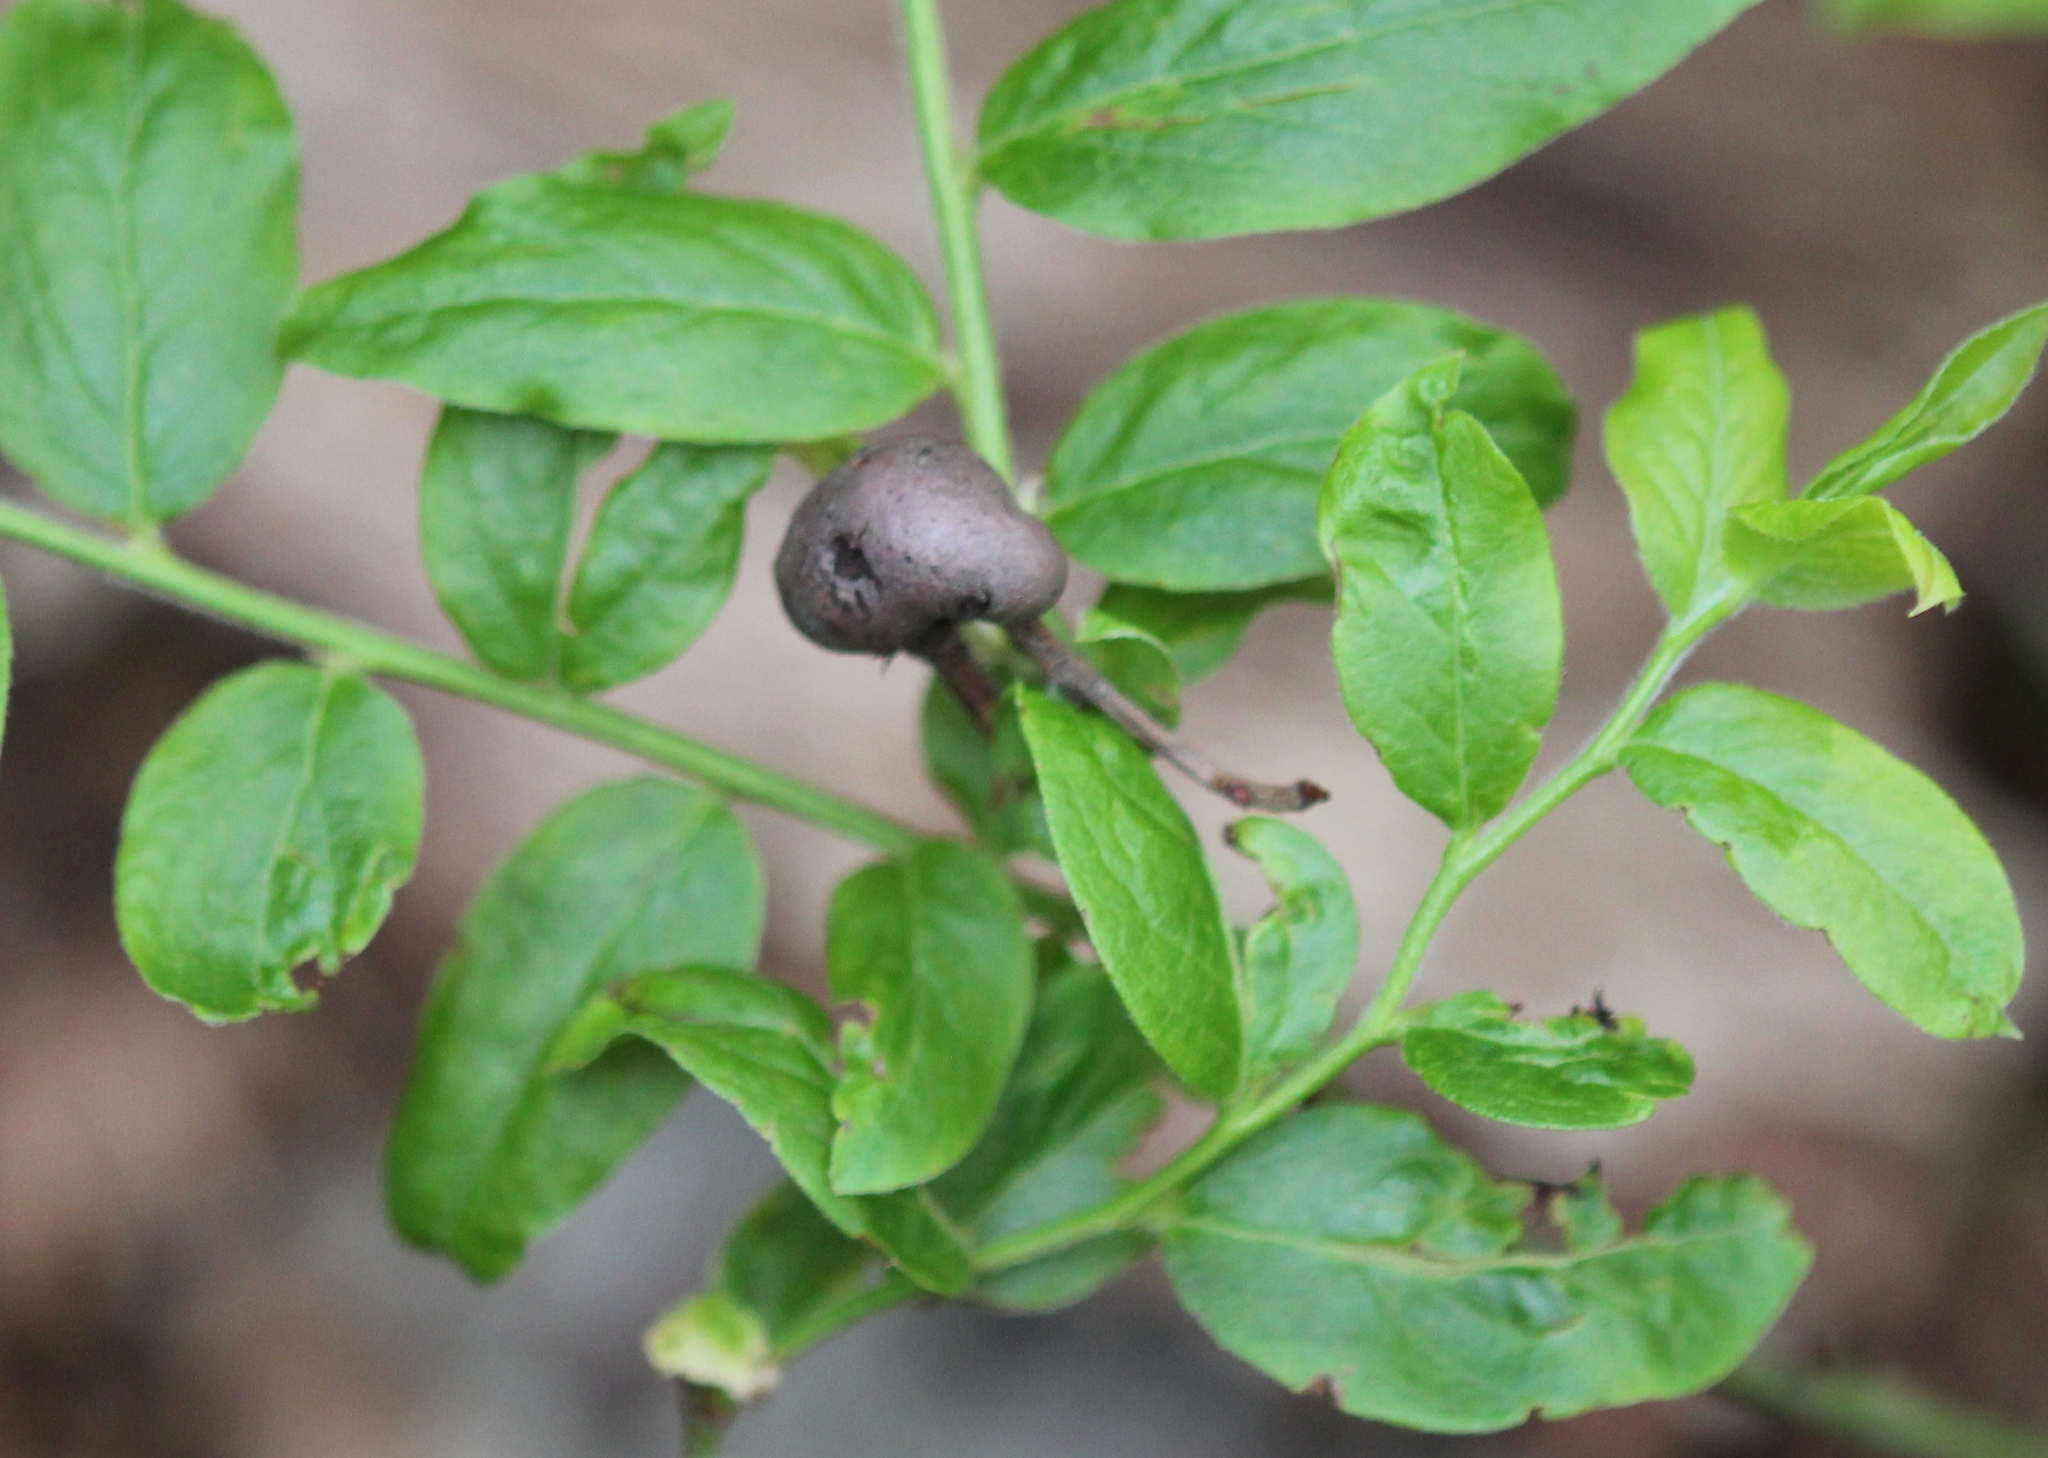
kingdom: Animalia
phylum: Arthropoda
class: Insecta
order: Hymenoptera
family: Pteromalidae
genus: Hemadas
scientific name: Hemadas nubilipennis
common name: Blueberry stem gall wasp
